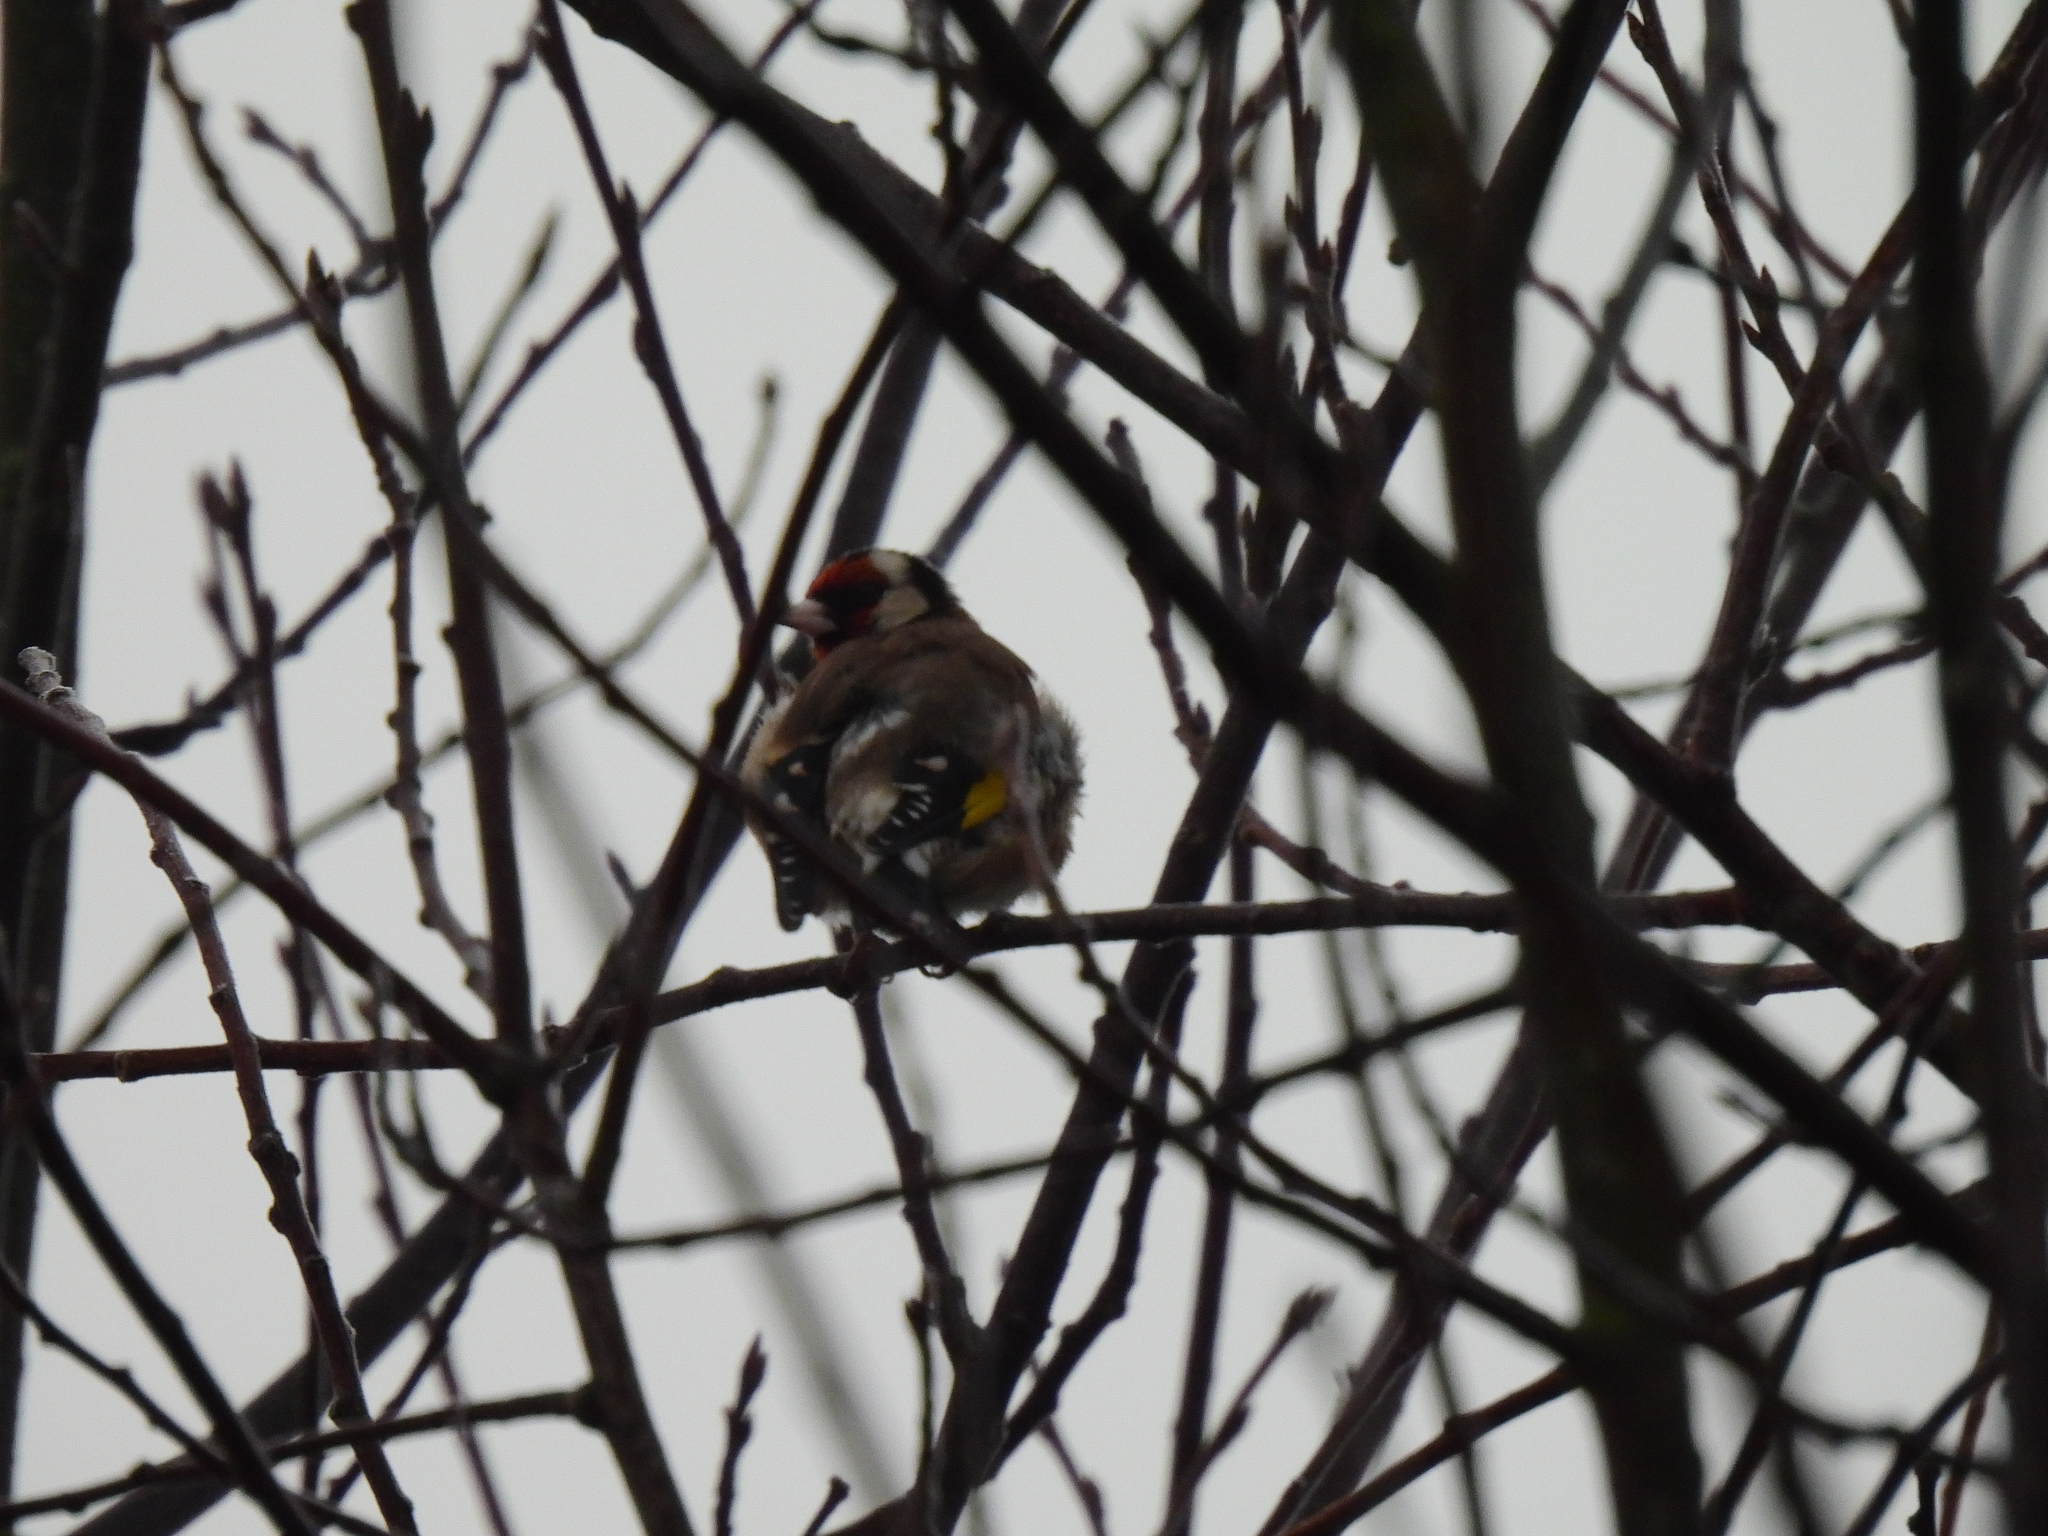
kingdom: Animalia
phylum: Chordata
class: Aves
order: Passeriformes
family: Fringillidae
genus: Carduelis
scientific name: Carduelis carduelis
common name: European goldfinch
